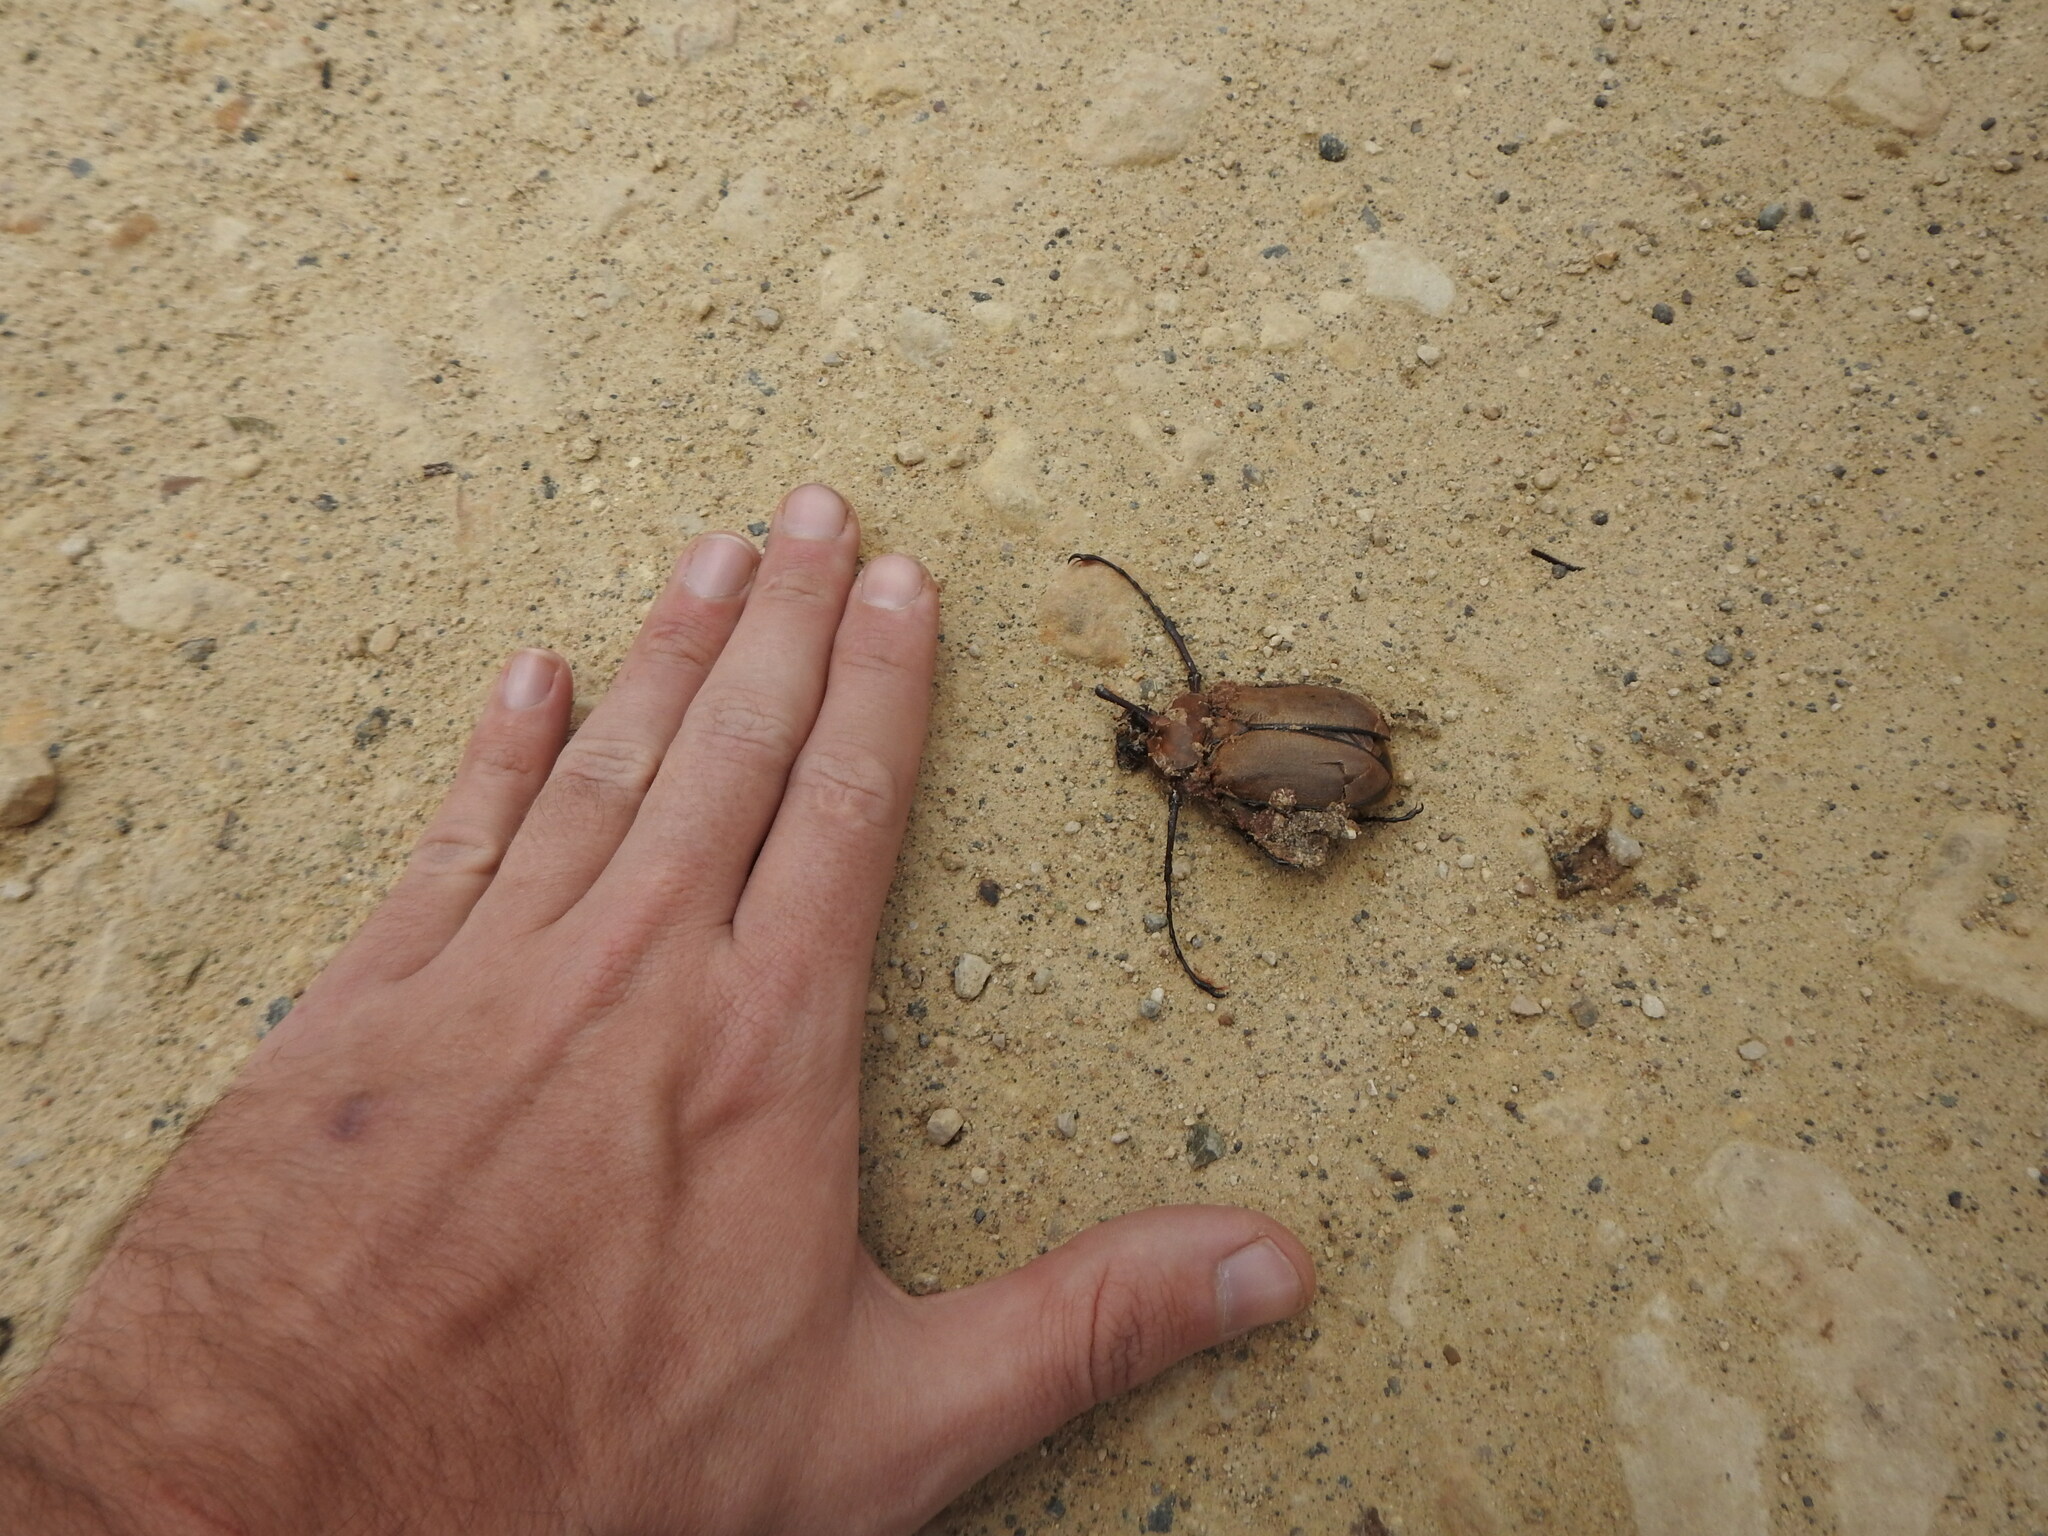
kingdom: Animalia
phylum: Arthropoda
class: Insecta
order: Coleoptera
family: Scarabaeidae
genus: Golofa
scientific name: Golofa porteri
